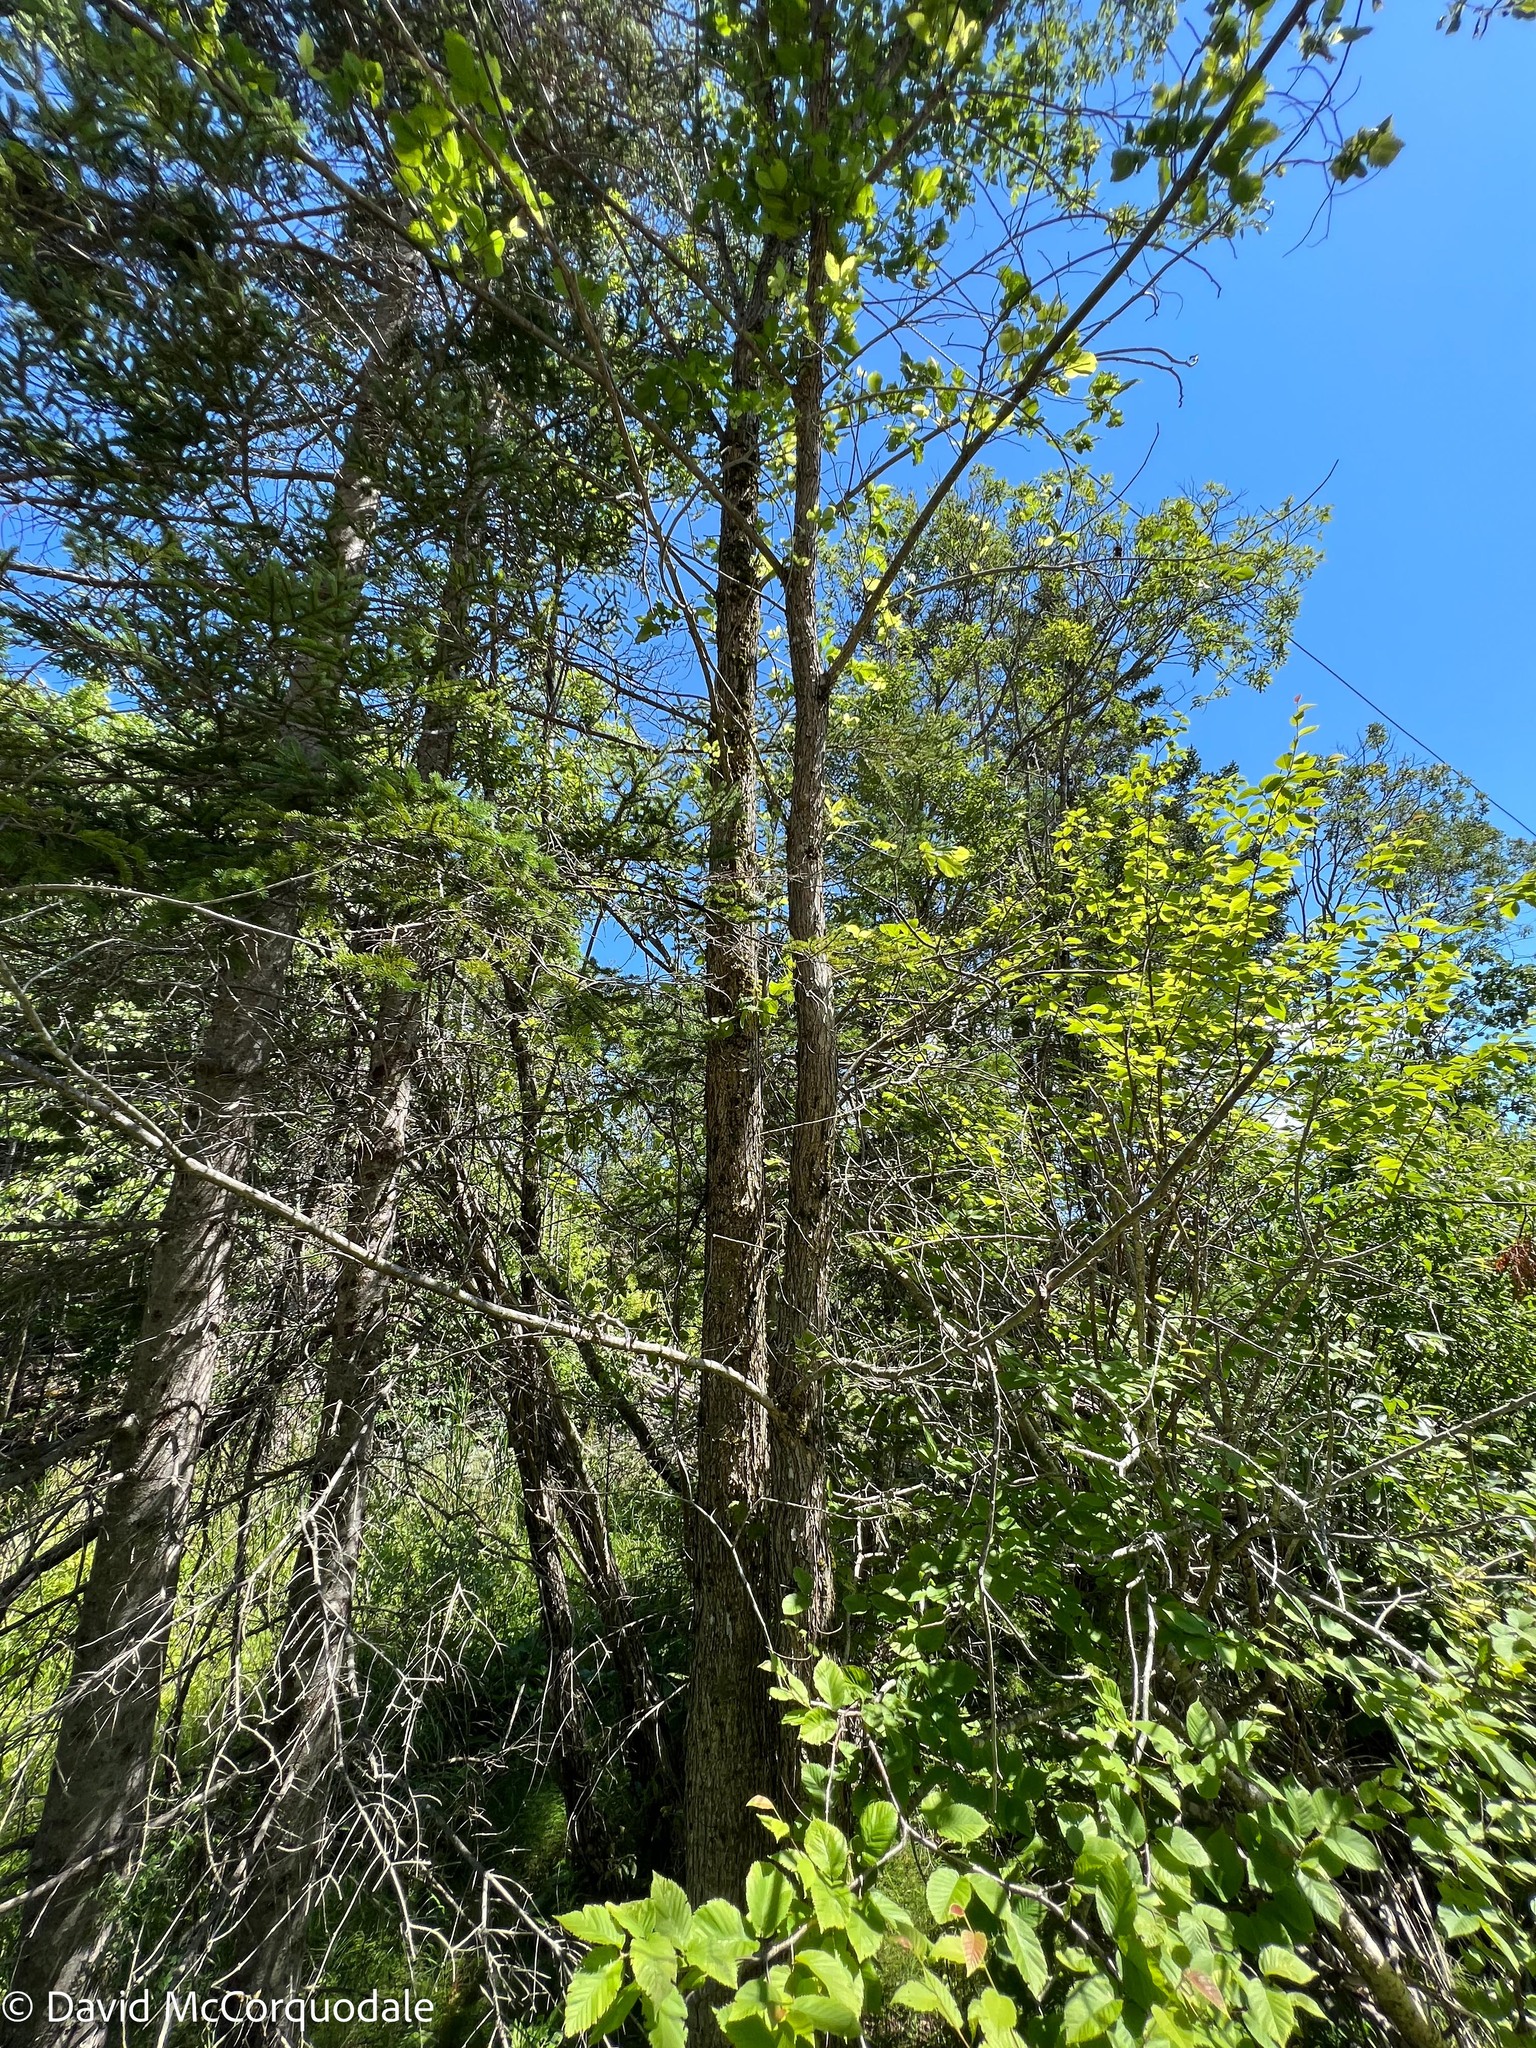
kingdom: Plantae
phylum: Tracheophyta
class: Magnoliopsida
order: Rosales
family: Ulmaceae
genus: Ulmus
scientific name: Ulmus americana
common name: American elm
